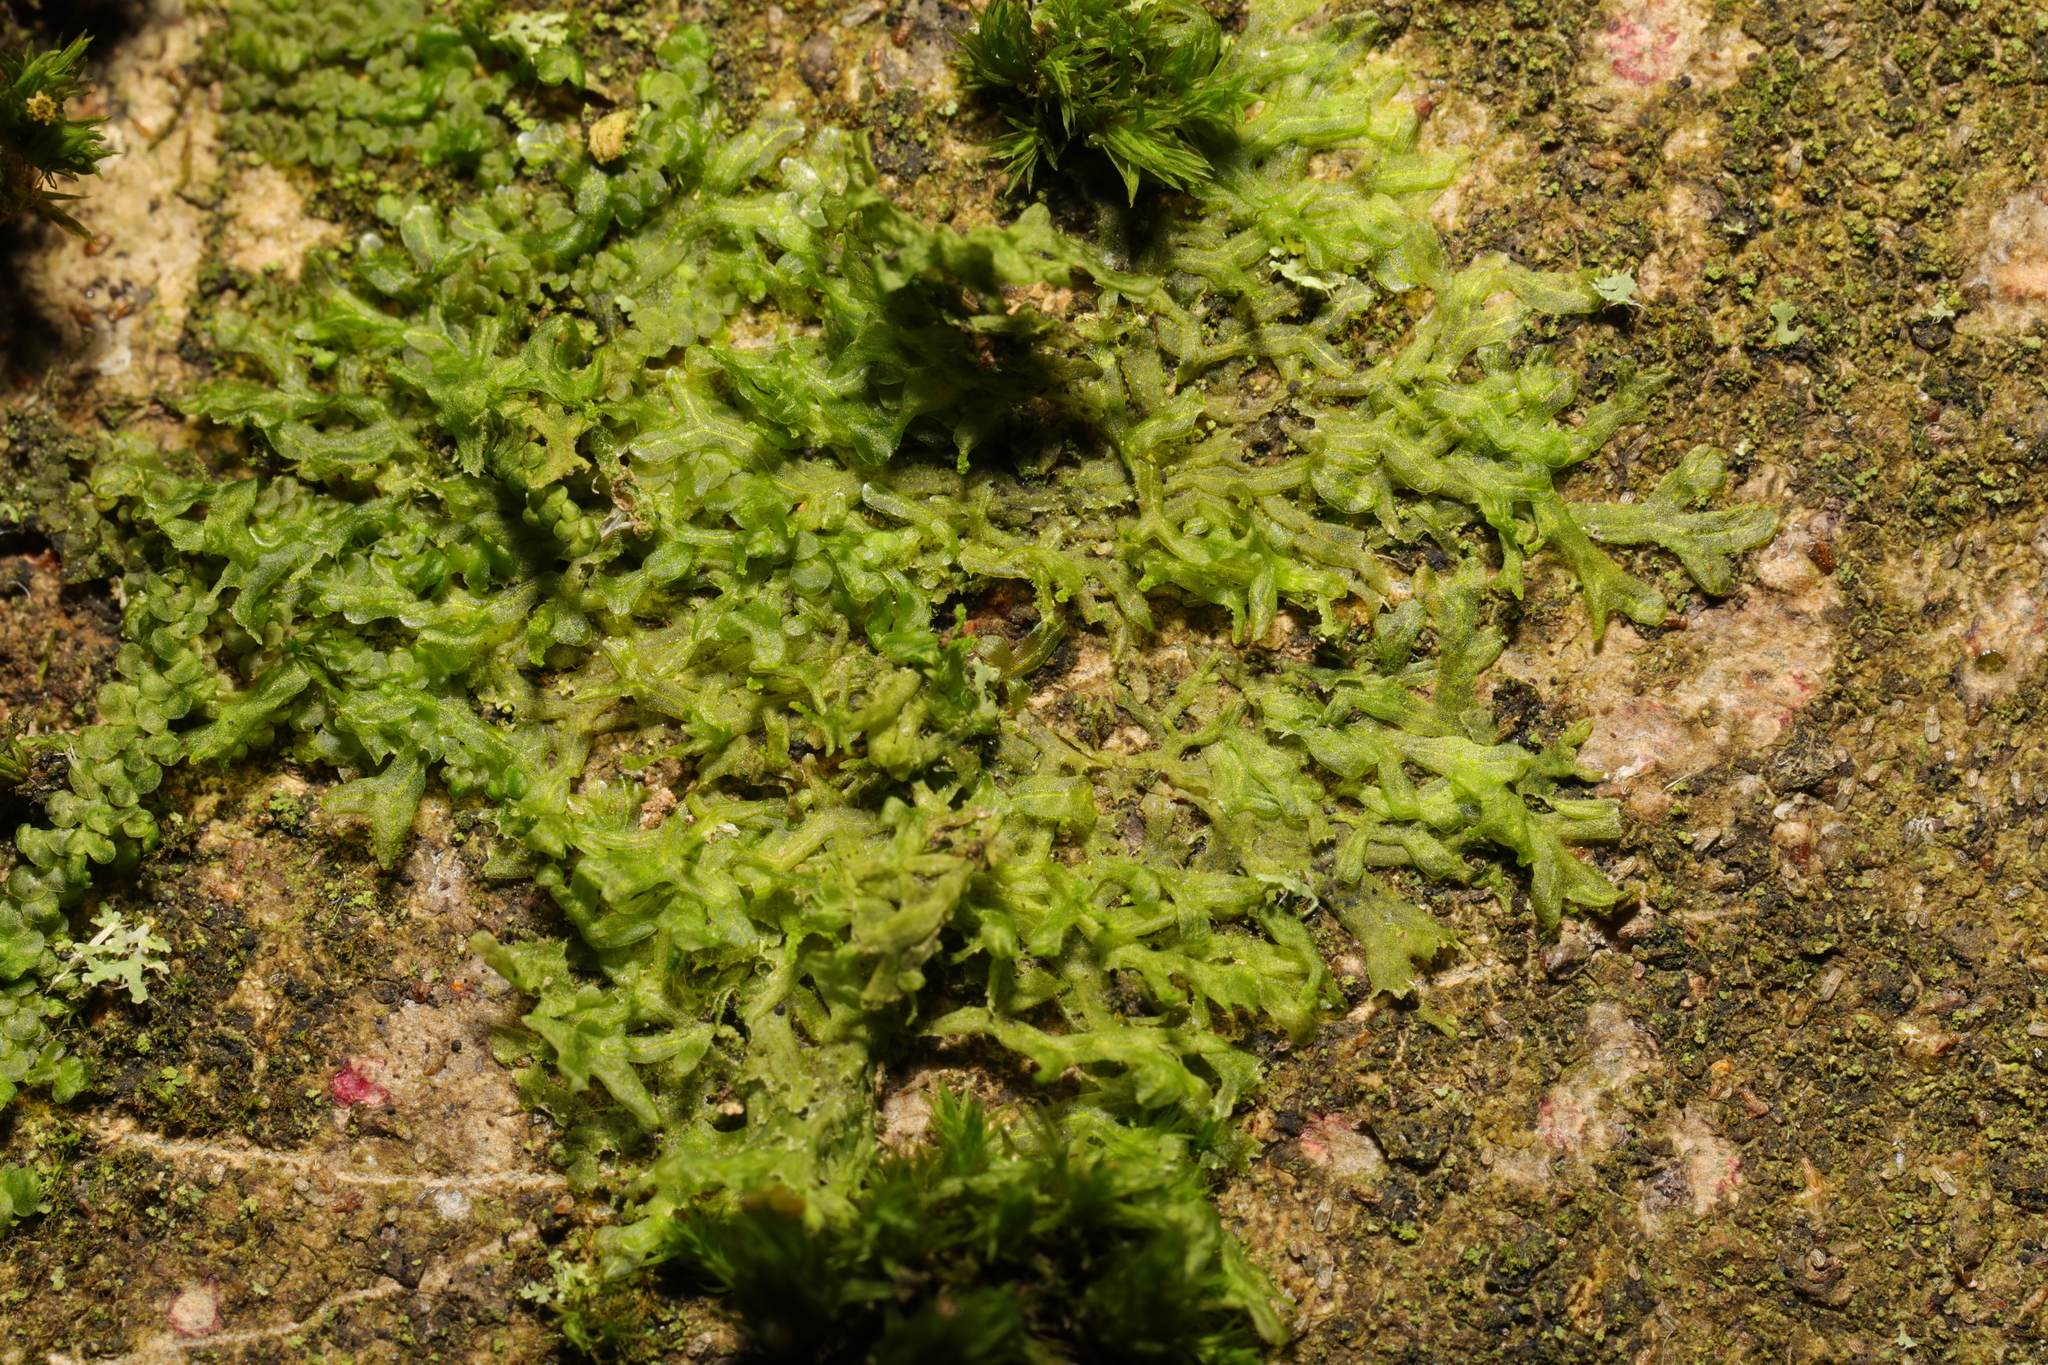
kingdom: Plantae
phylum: Marchantiophyta
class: Jungermanniopsida
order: Metzgeriales
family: Metzgeriaceae
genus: Metzgeria
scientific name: Metzgeria violacea
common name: Blueish veilwort
